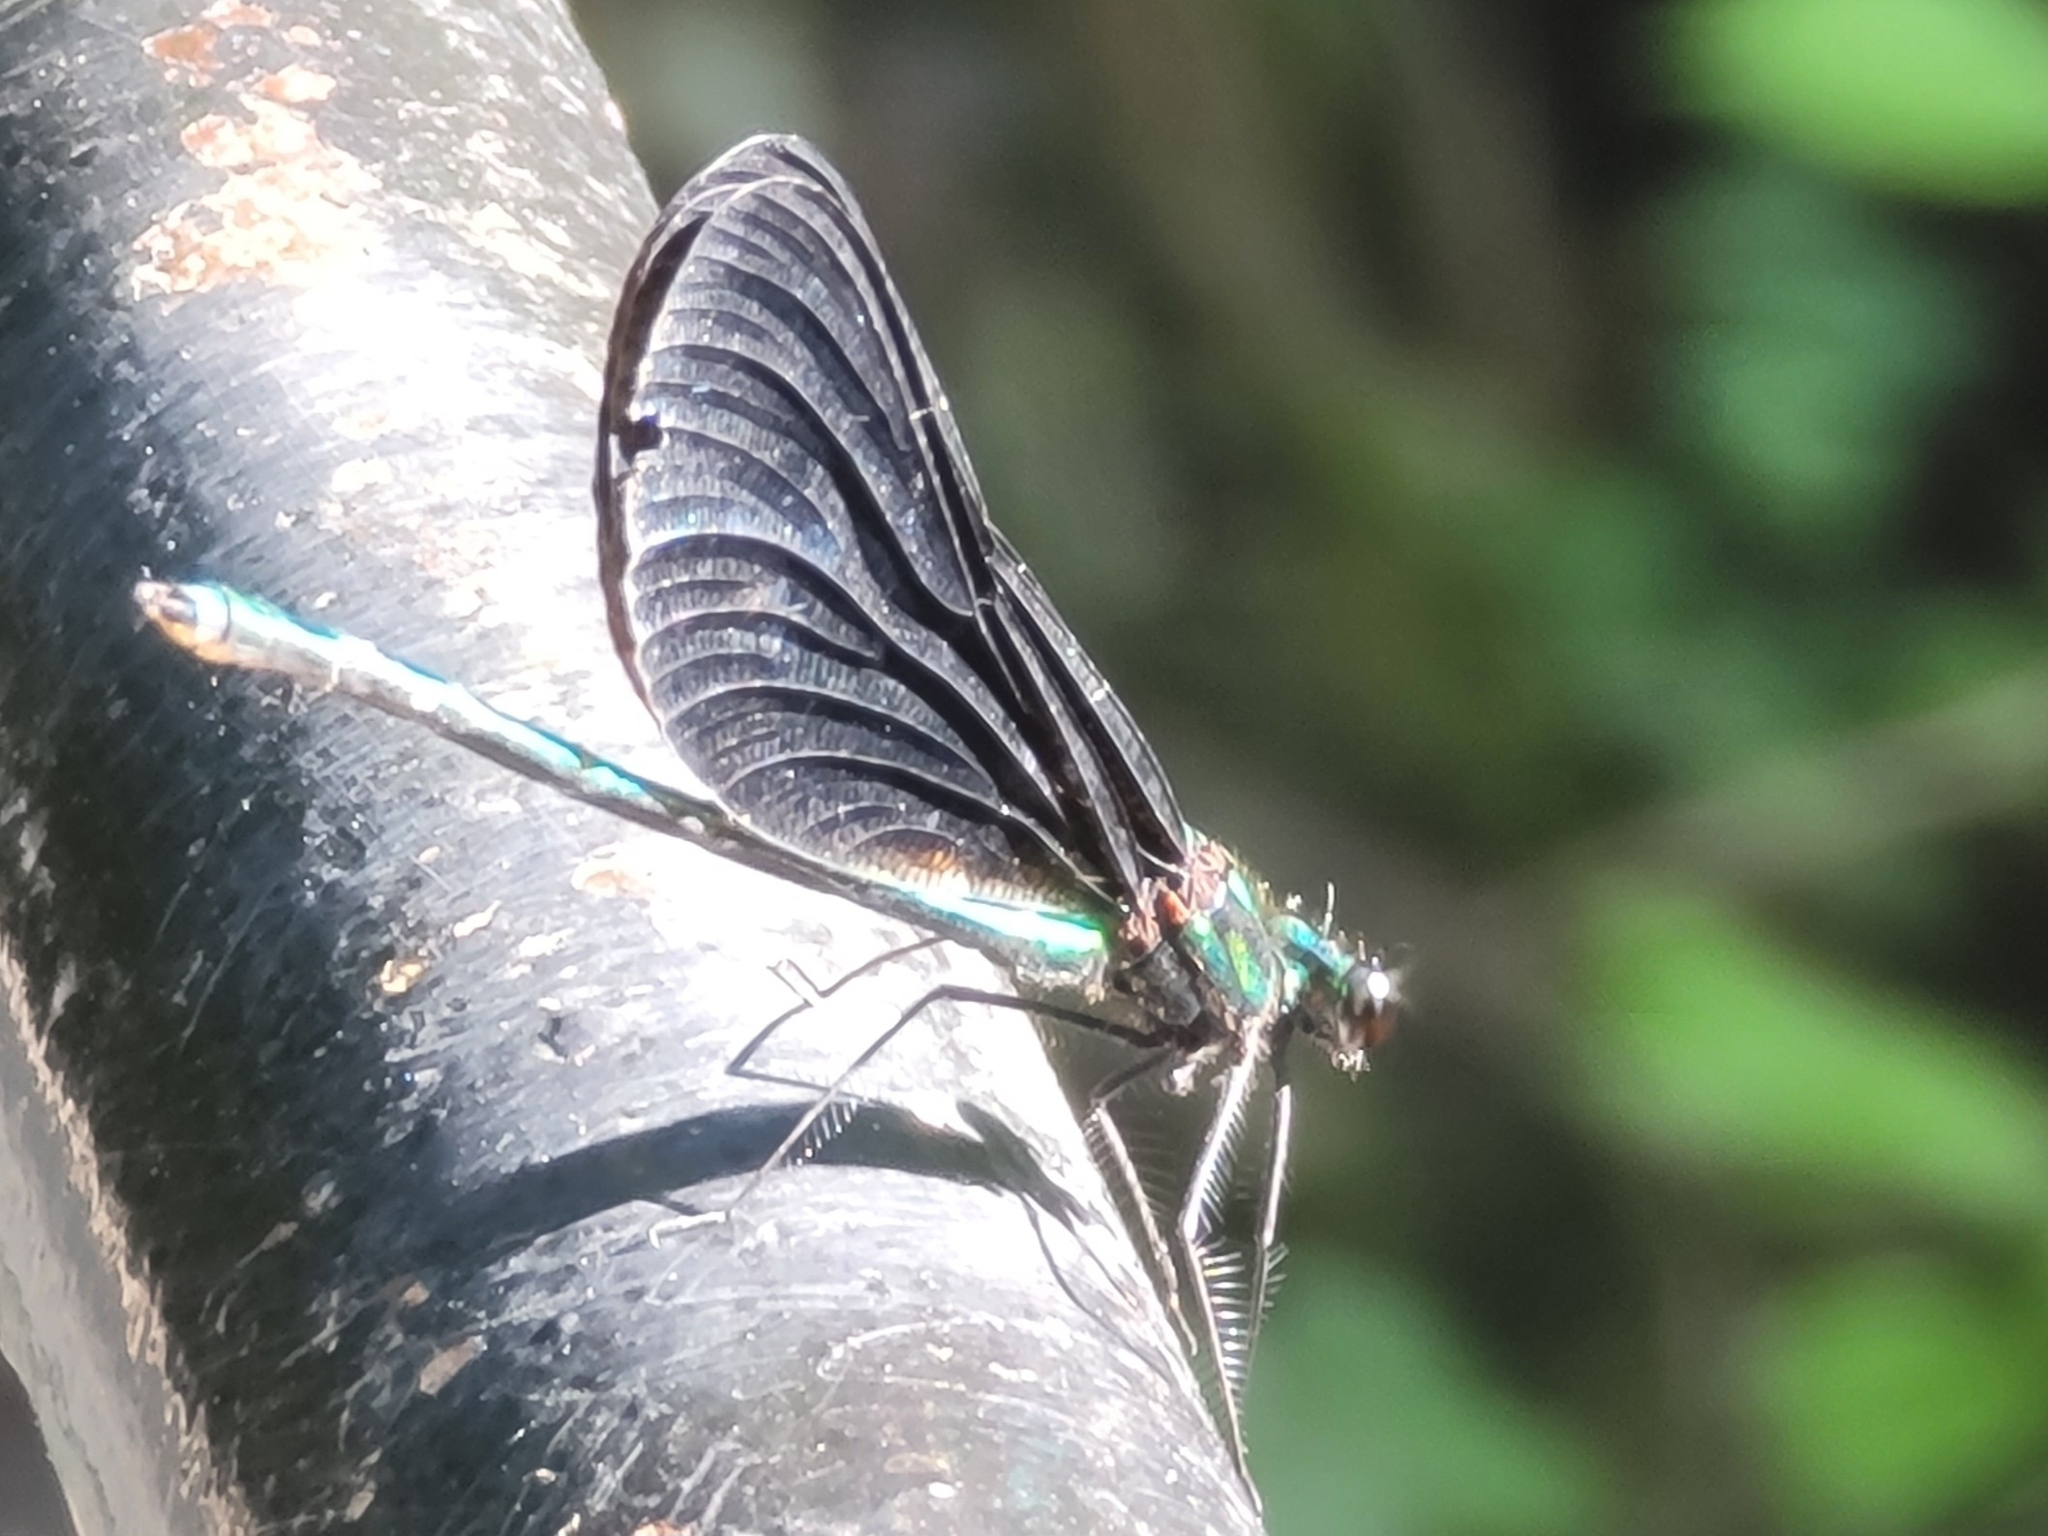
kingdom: Animalia
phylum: Arthropoda
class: Insecta
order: Odonata
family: Calopterygidae
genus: Calopteryx
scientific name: Calopteryx maculata
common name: Ebony jewelwing
